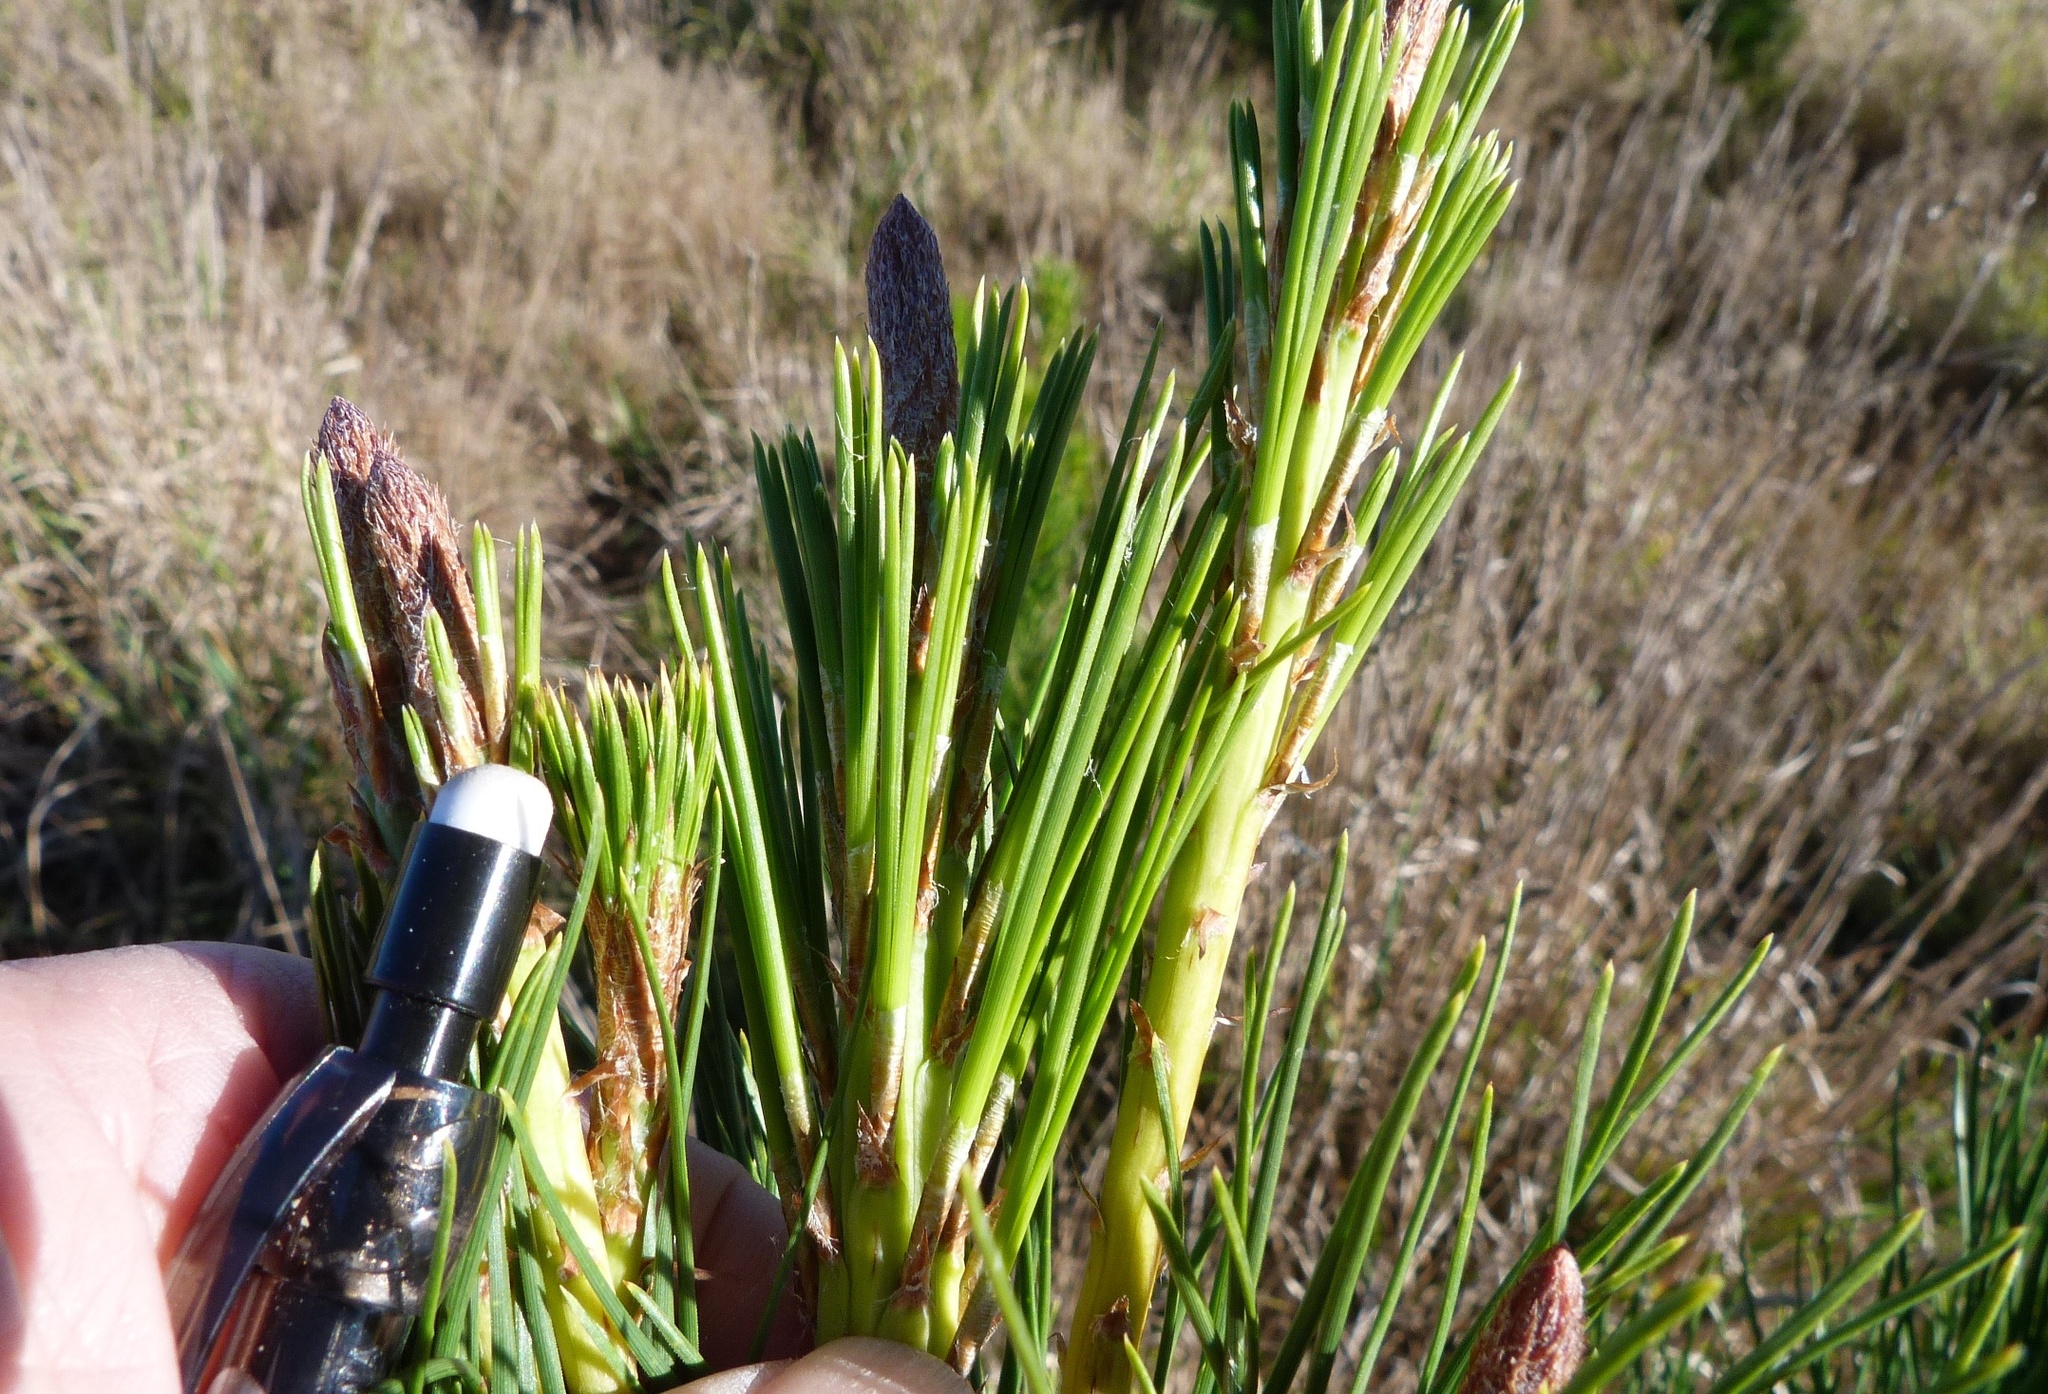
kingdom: Plantae
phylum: Tracheophyta
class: Pinopsida
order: Pinales
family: Pinaceae
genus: Pinus
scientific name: Pinus radiata
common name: Monterey pine
